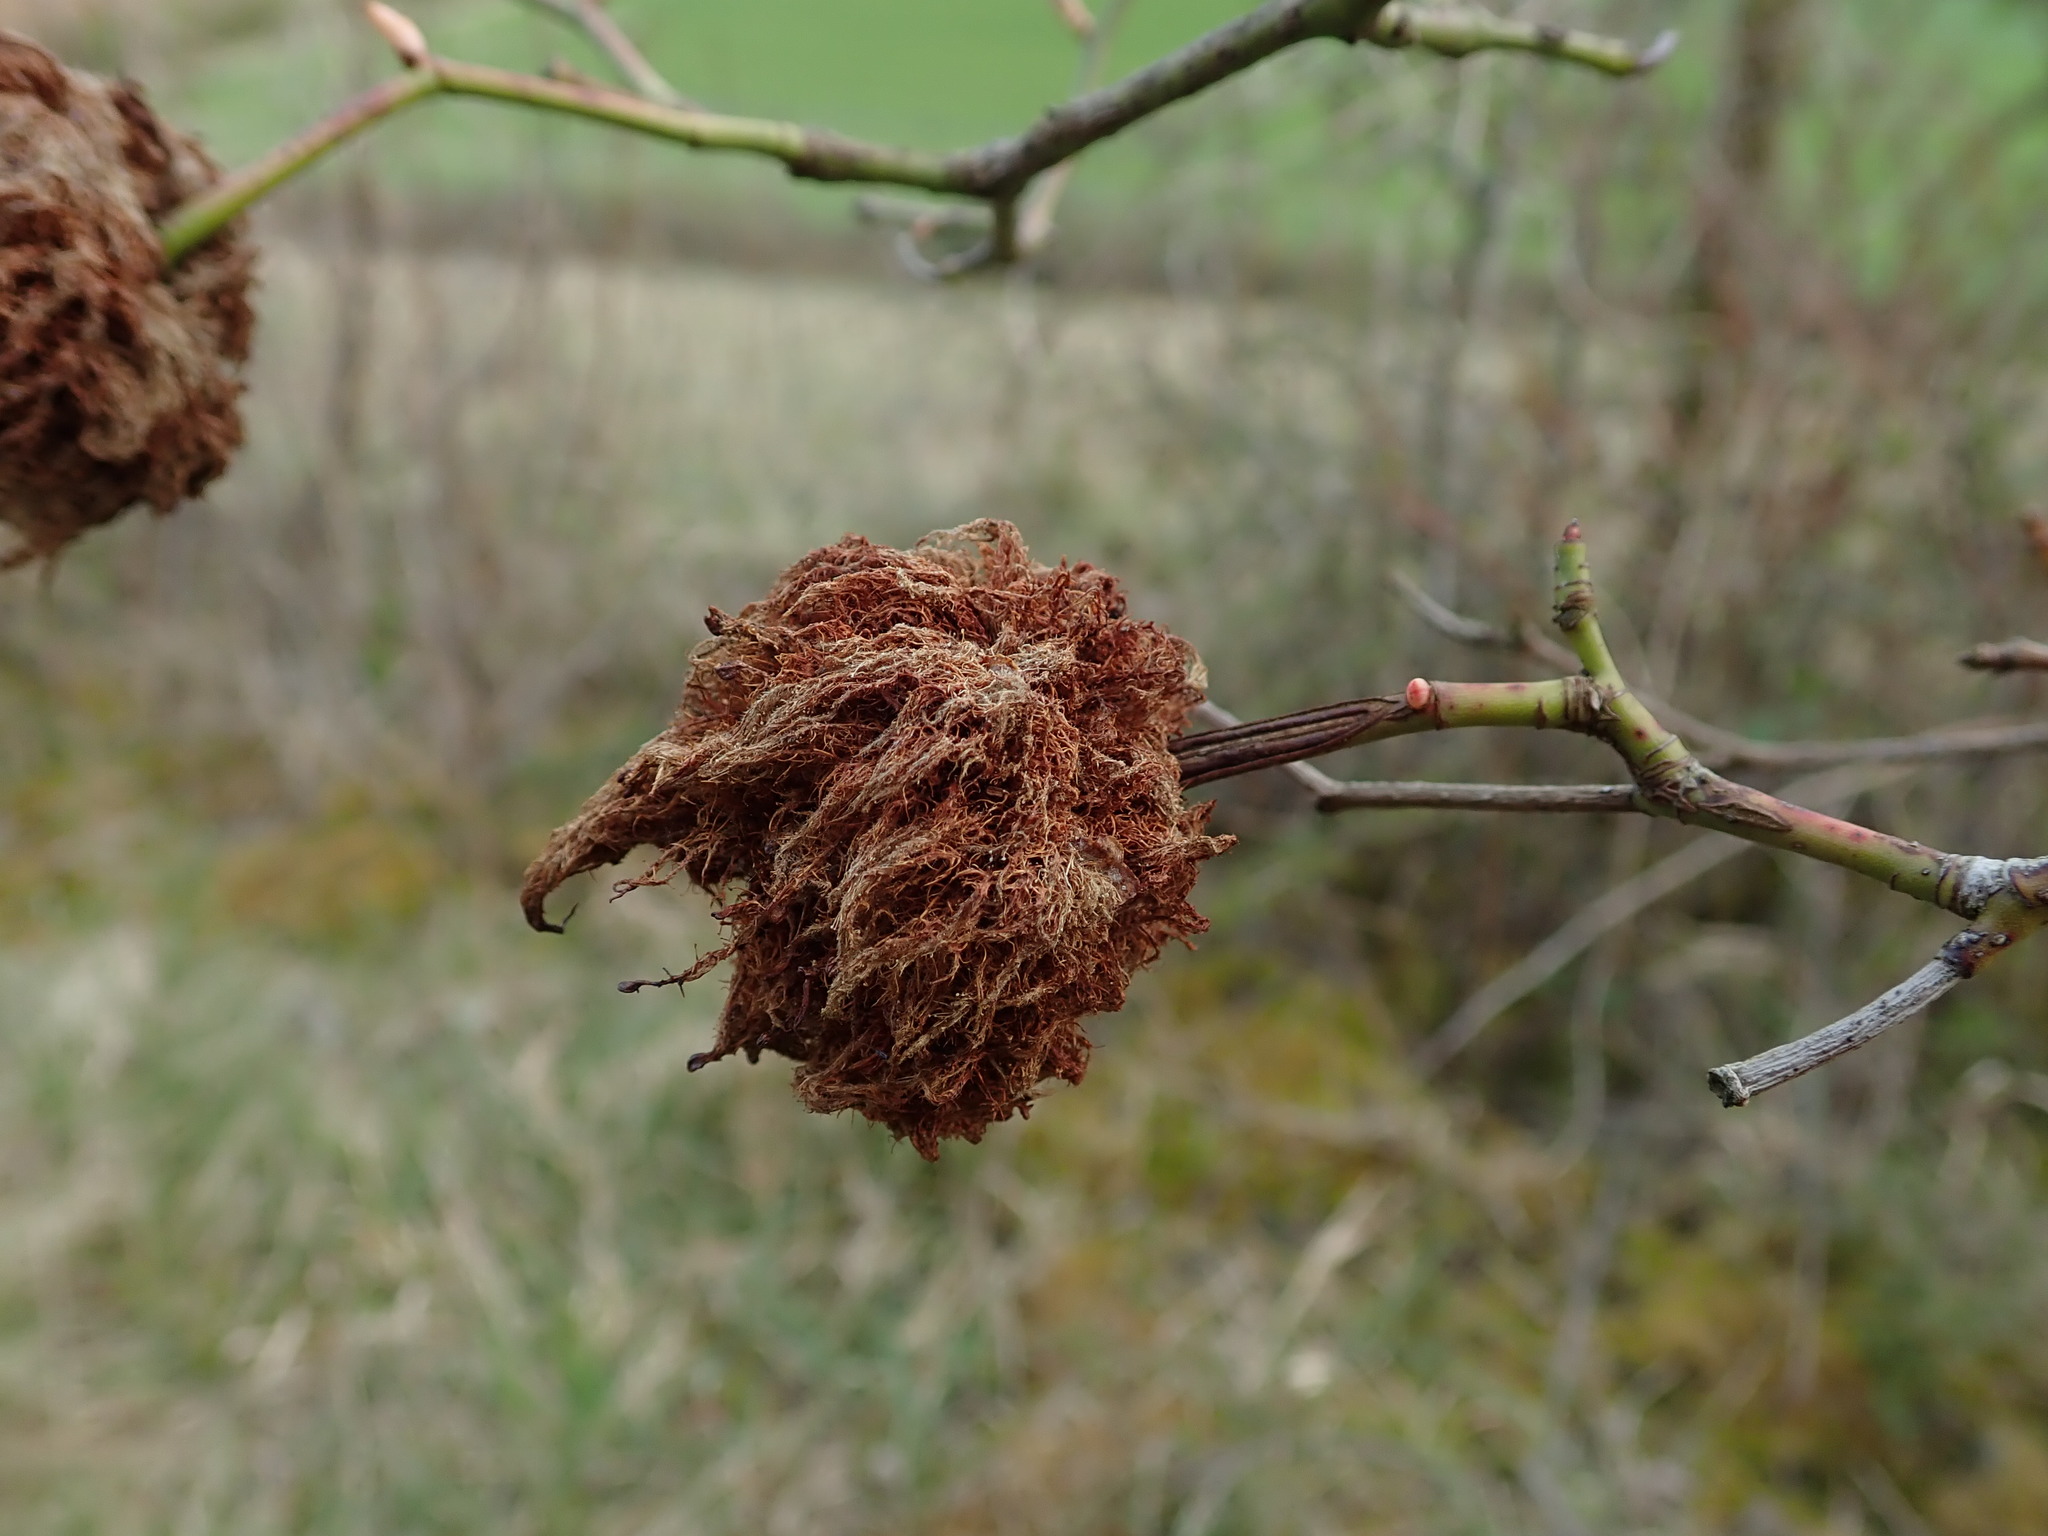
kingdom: Animalia
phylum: Arthropoda
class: Insecta
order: Hymenoptera
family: Cynipidae
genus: Diplolepis
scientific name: Diplolepis rosae
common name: Bedeguar gall
